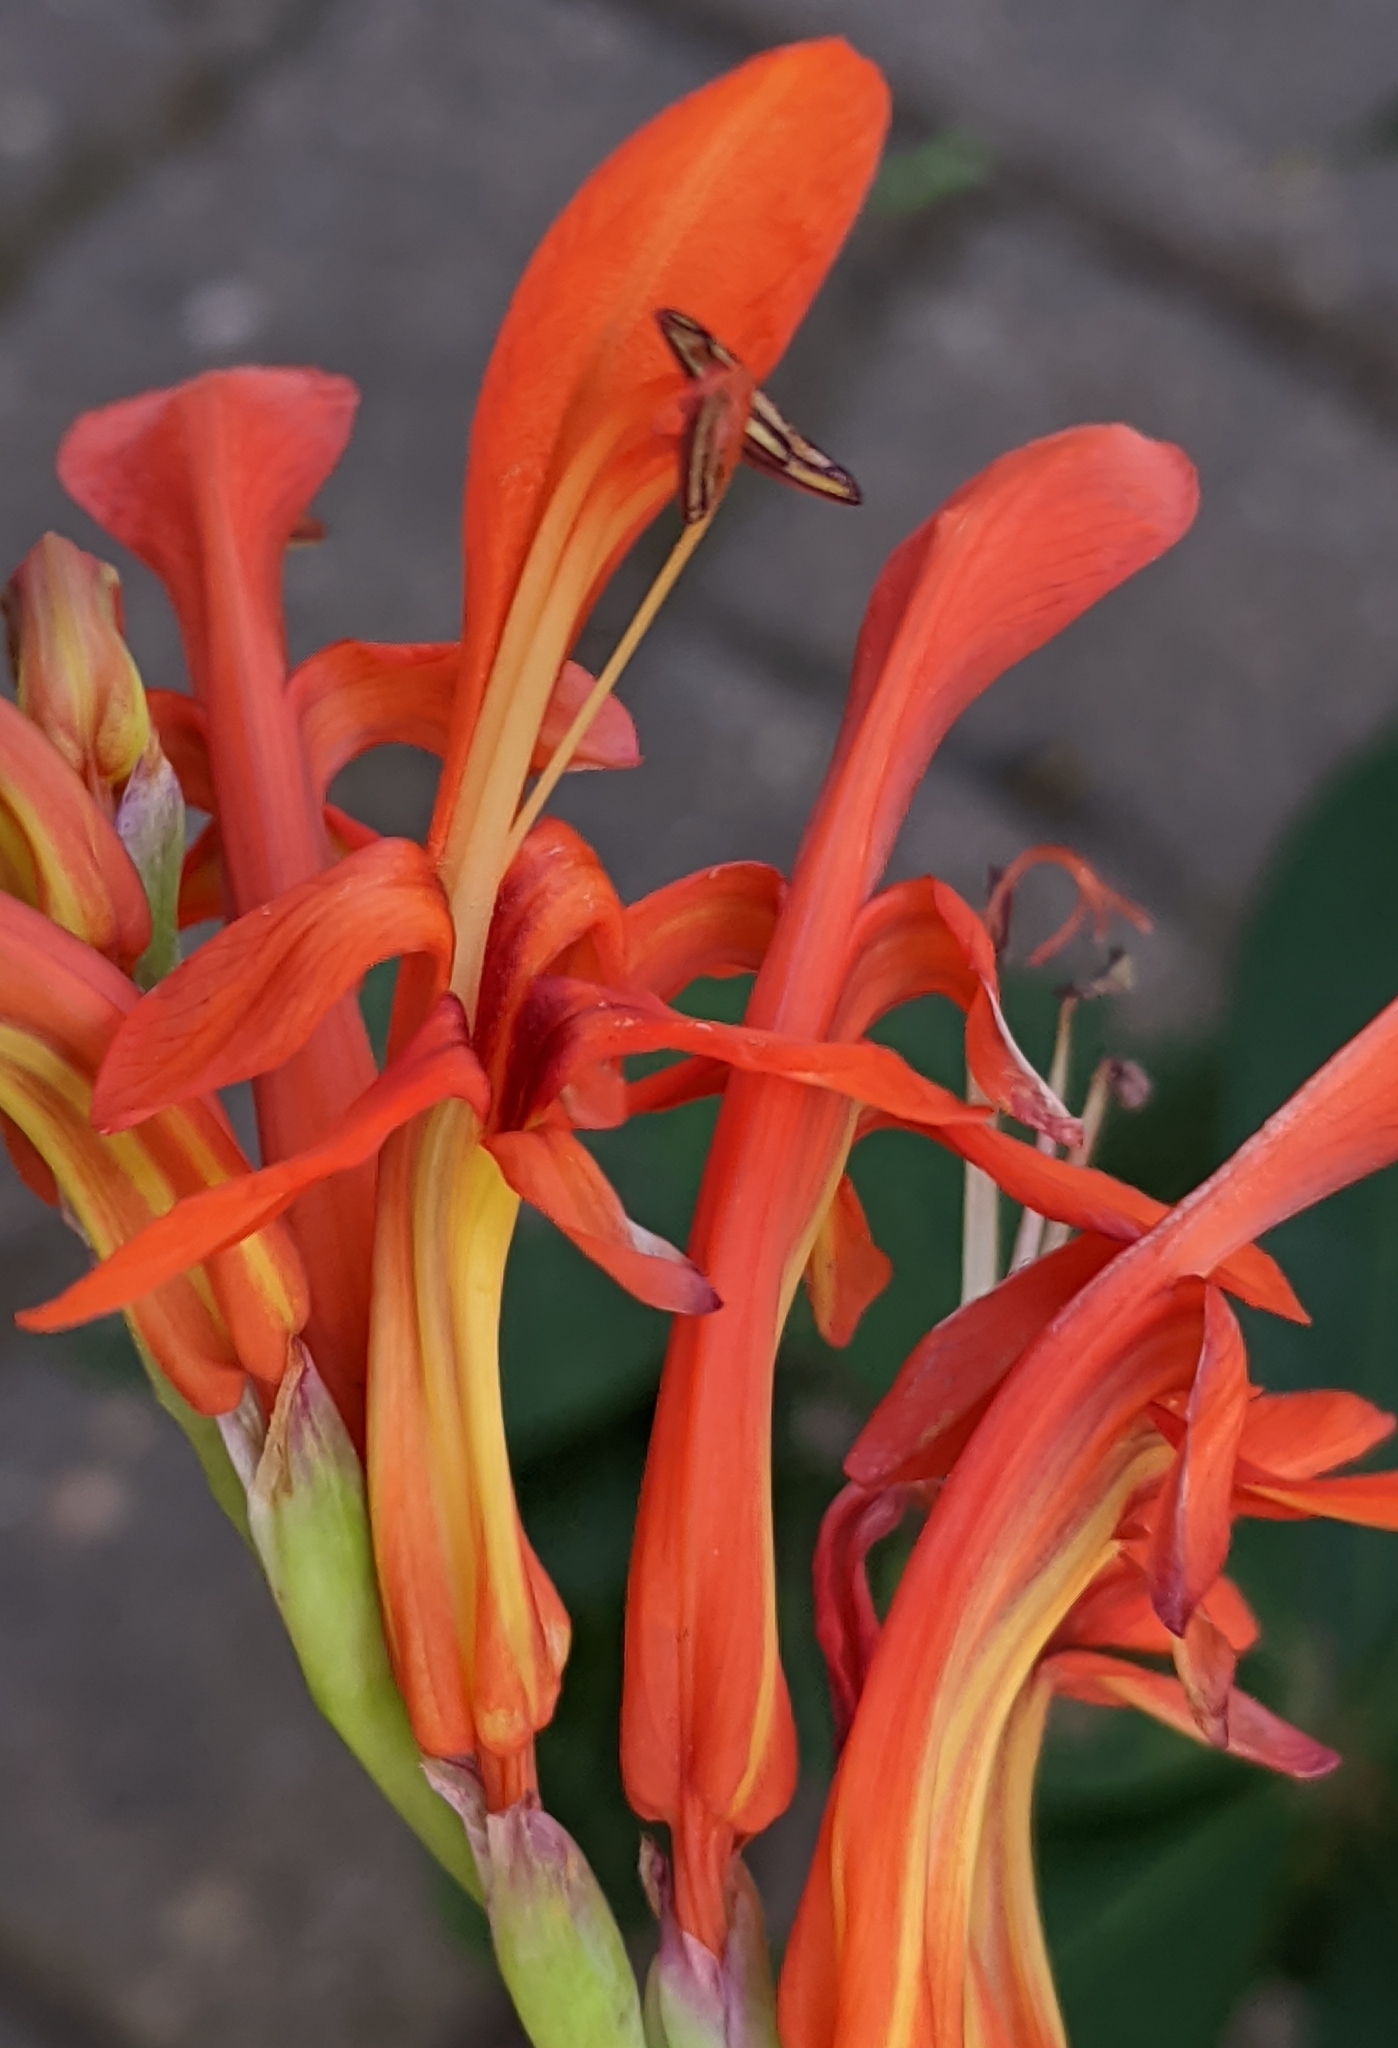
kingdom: Plantae
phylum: Tracheophyta
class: Liliopsida
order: Asparagales
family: Iridaceae
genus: Chasmanthe
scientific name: Chasmanthe aethiopica
